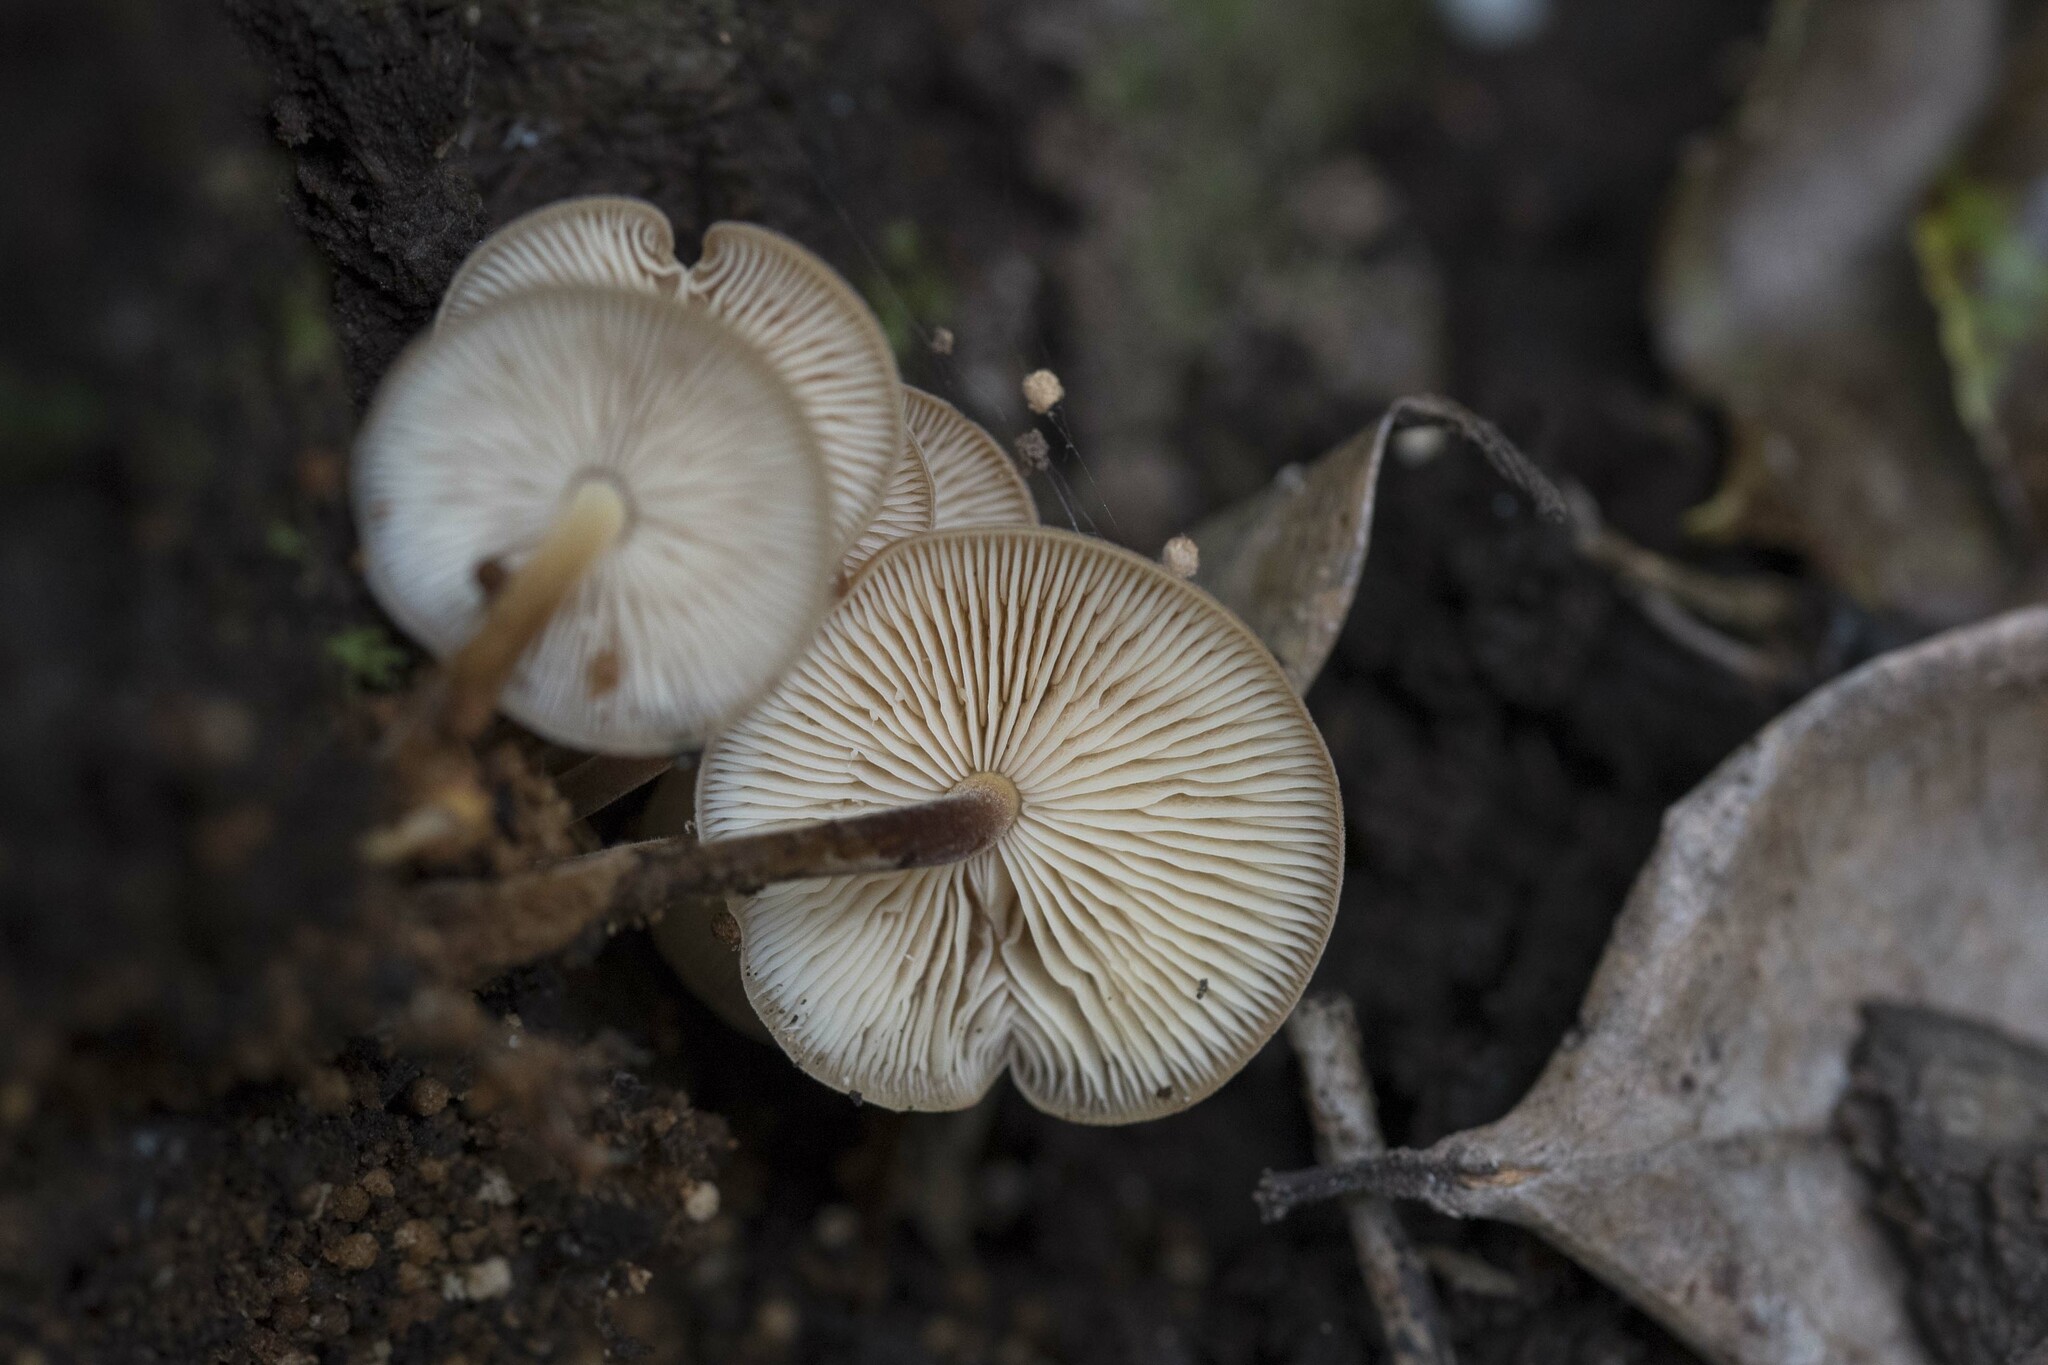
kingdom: Fungi
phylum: Basidiomycota
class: Agaricomycetes
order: Agaricales
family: Physalacriaceae
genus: Flammulina
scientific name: Flammulina filiformis
